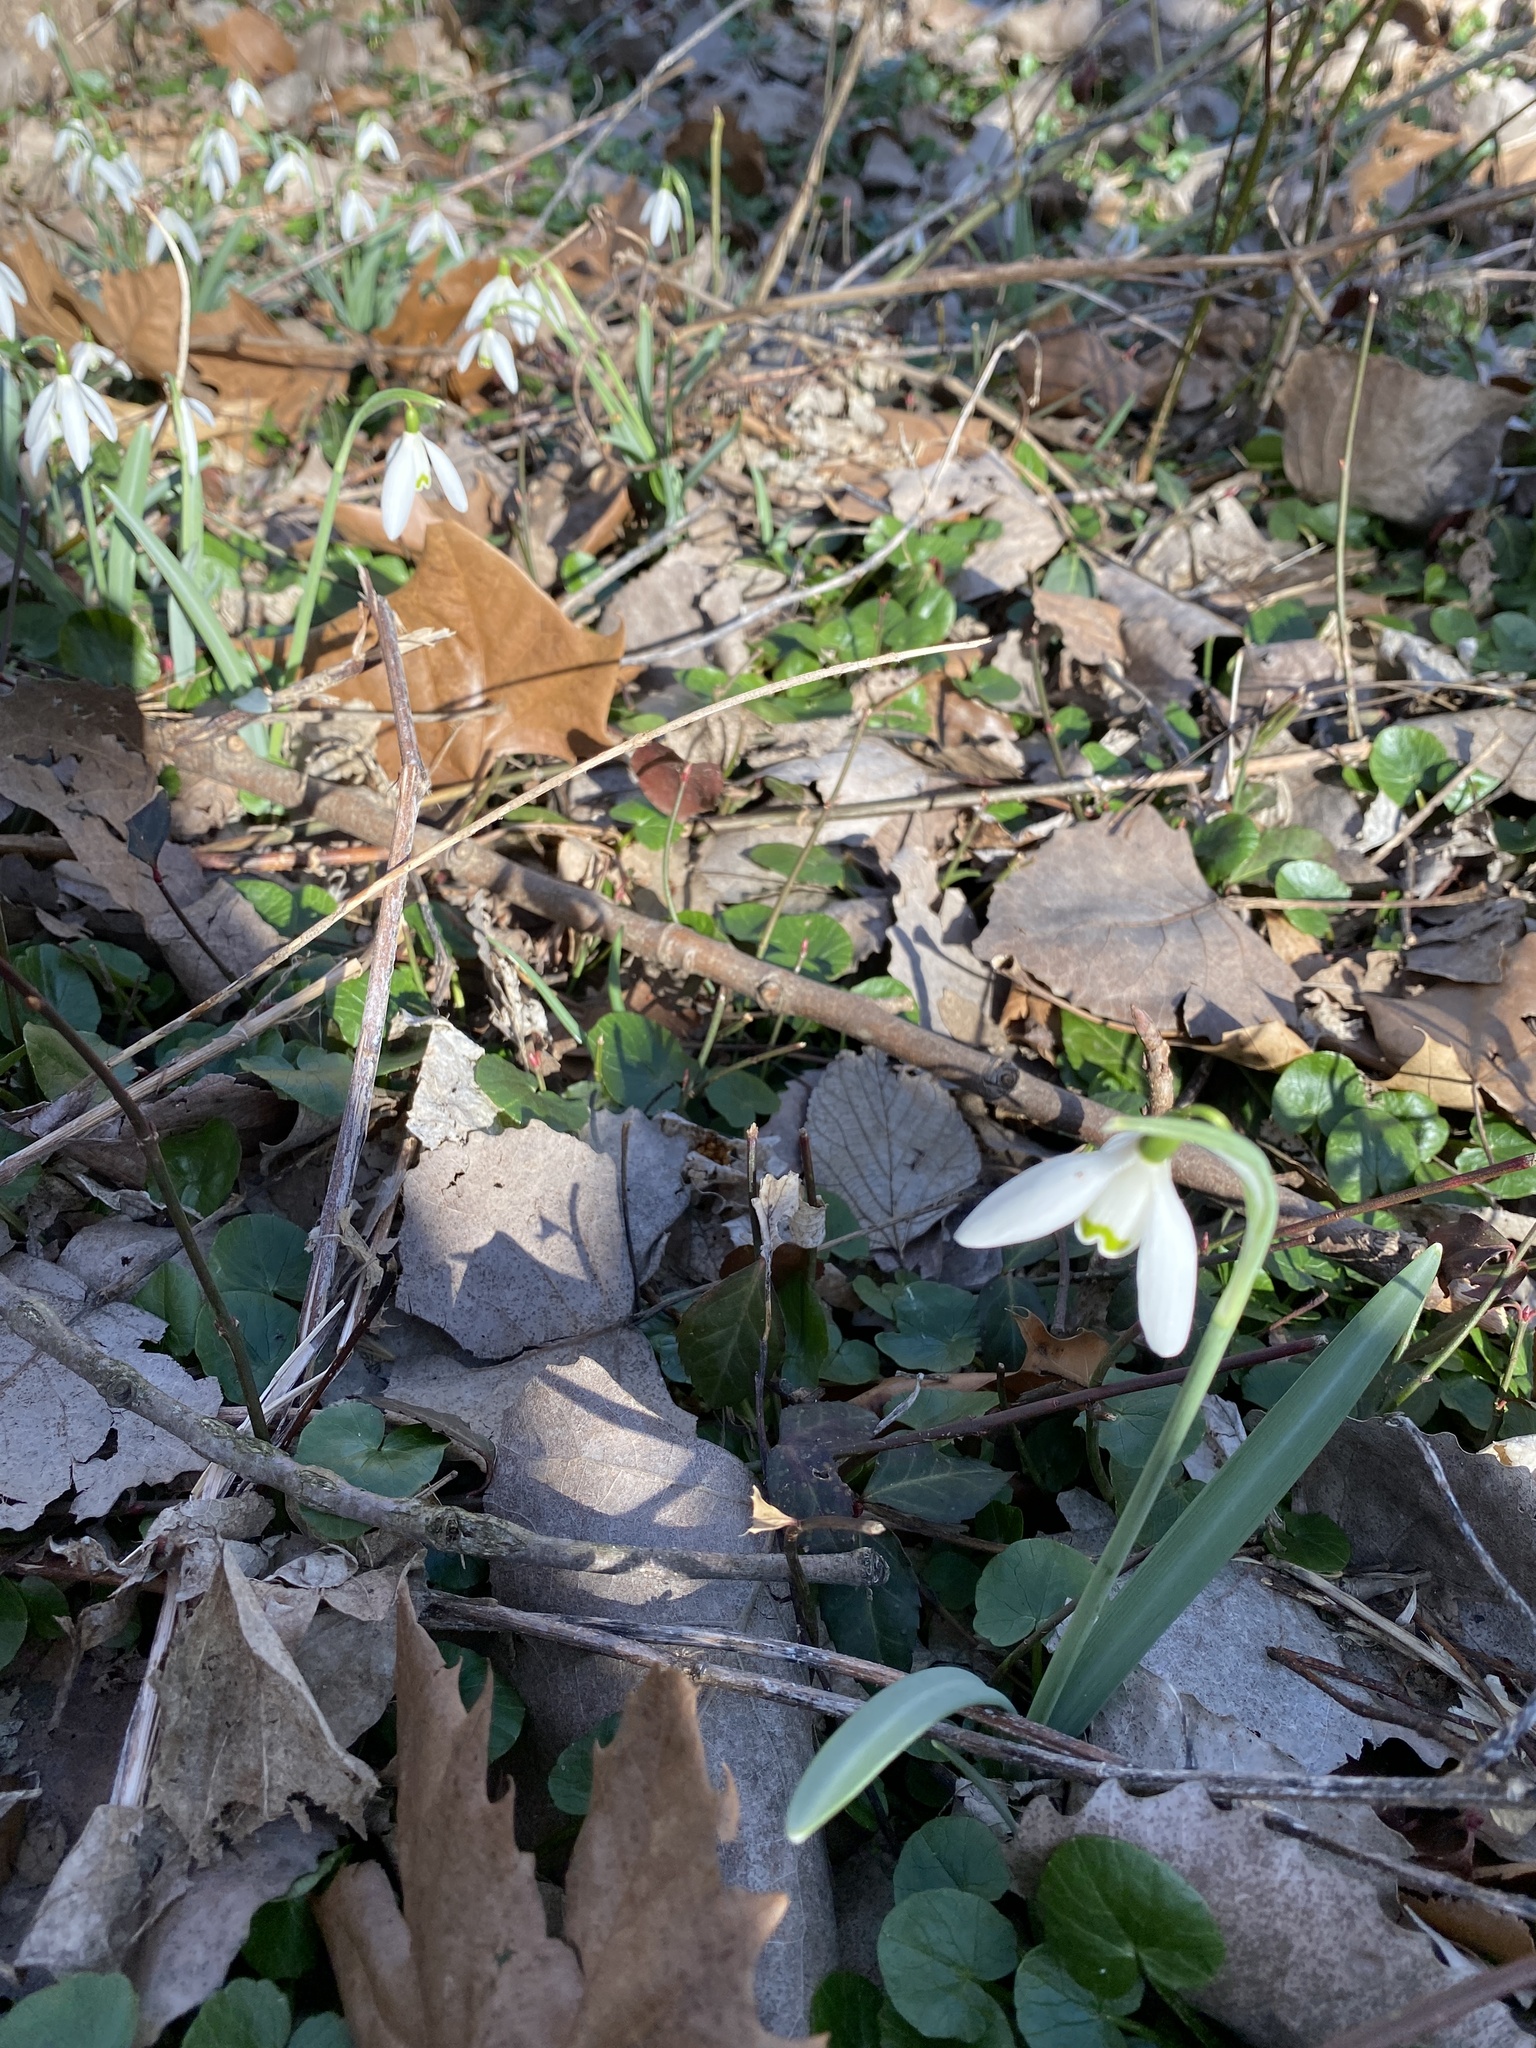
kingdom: Plantae
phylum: Tracheophyta
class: Liliopsida
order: Asparagales
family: Amaryllidaceae
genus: Galanthus
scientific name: Galanthus nivalis
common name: Snowdrop
